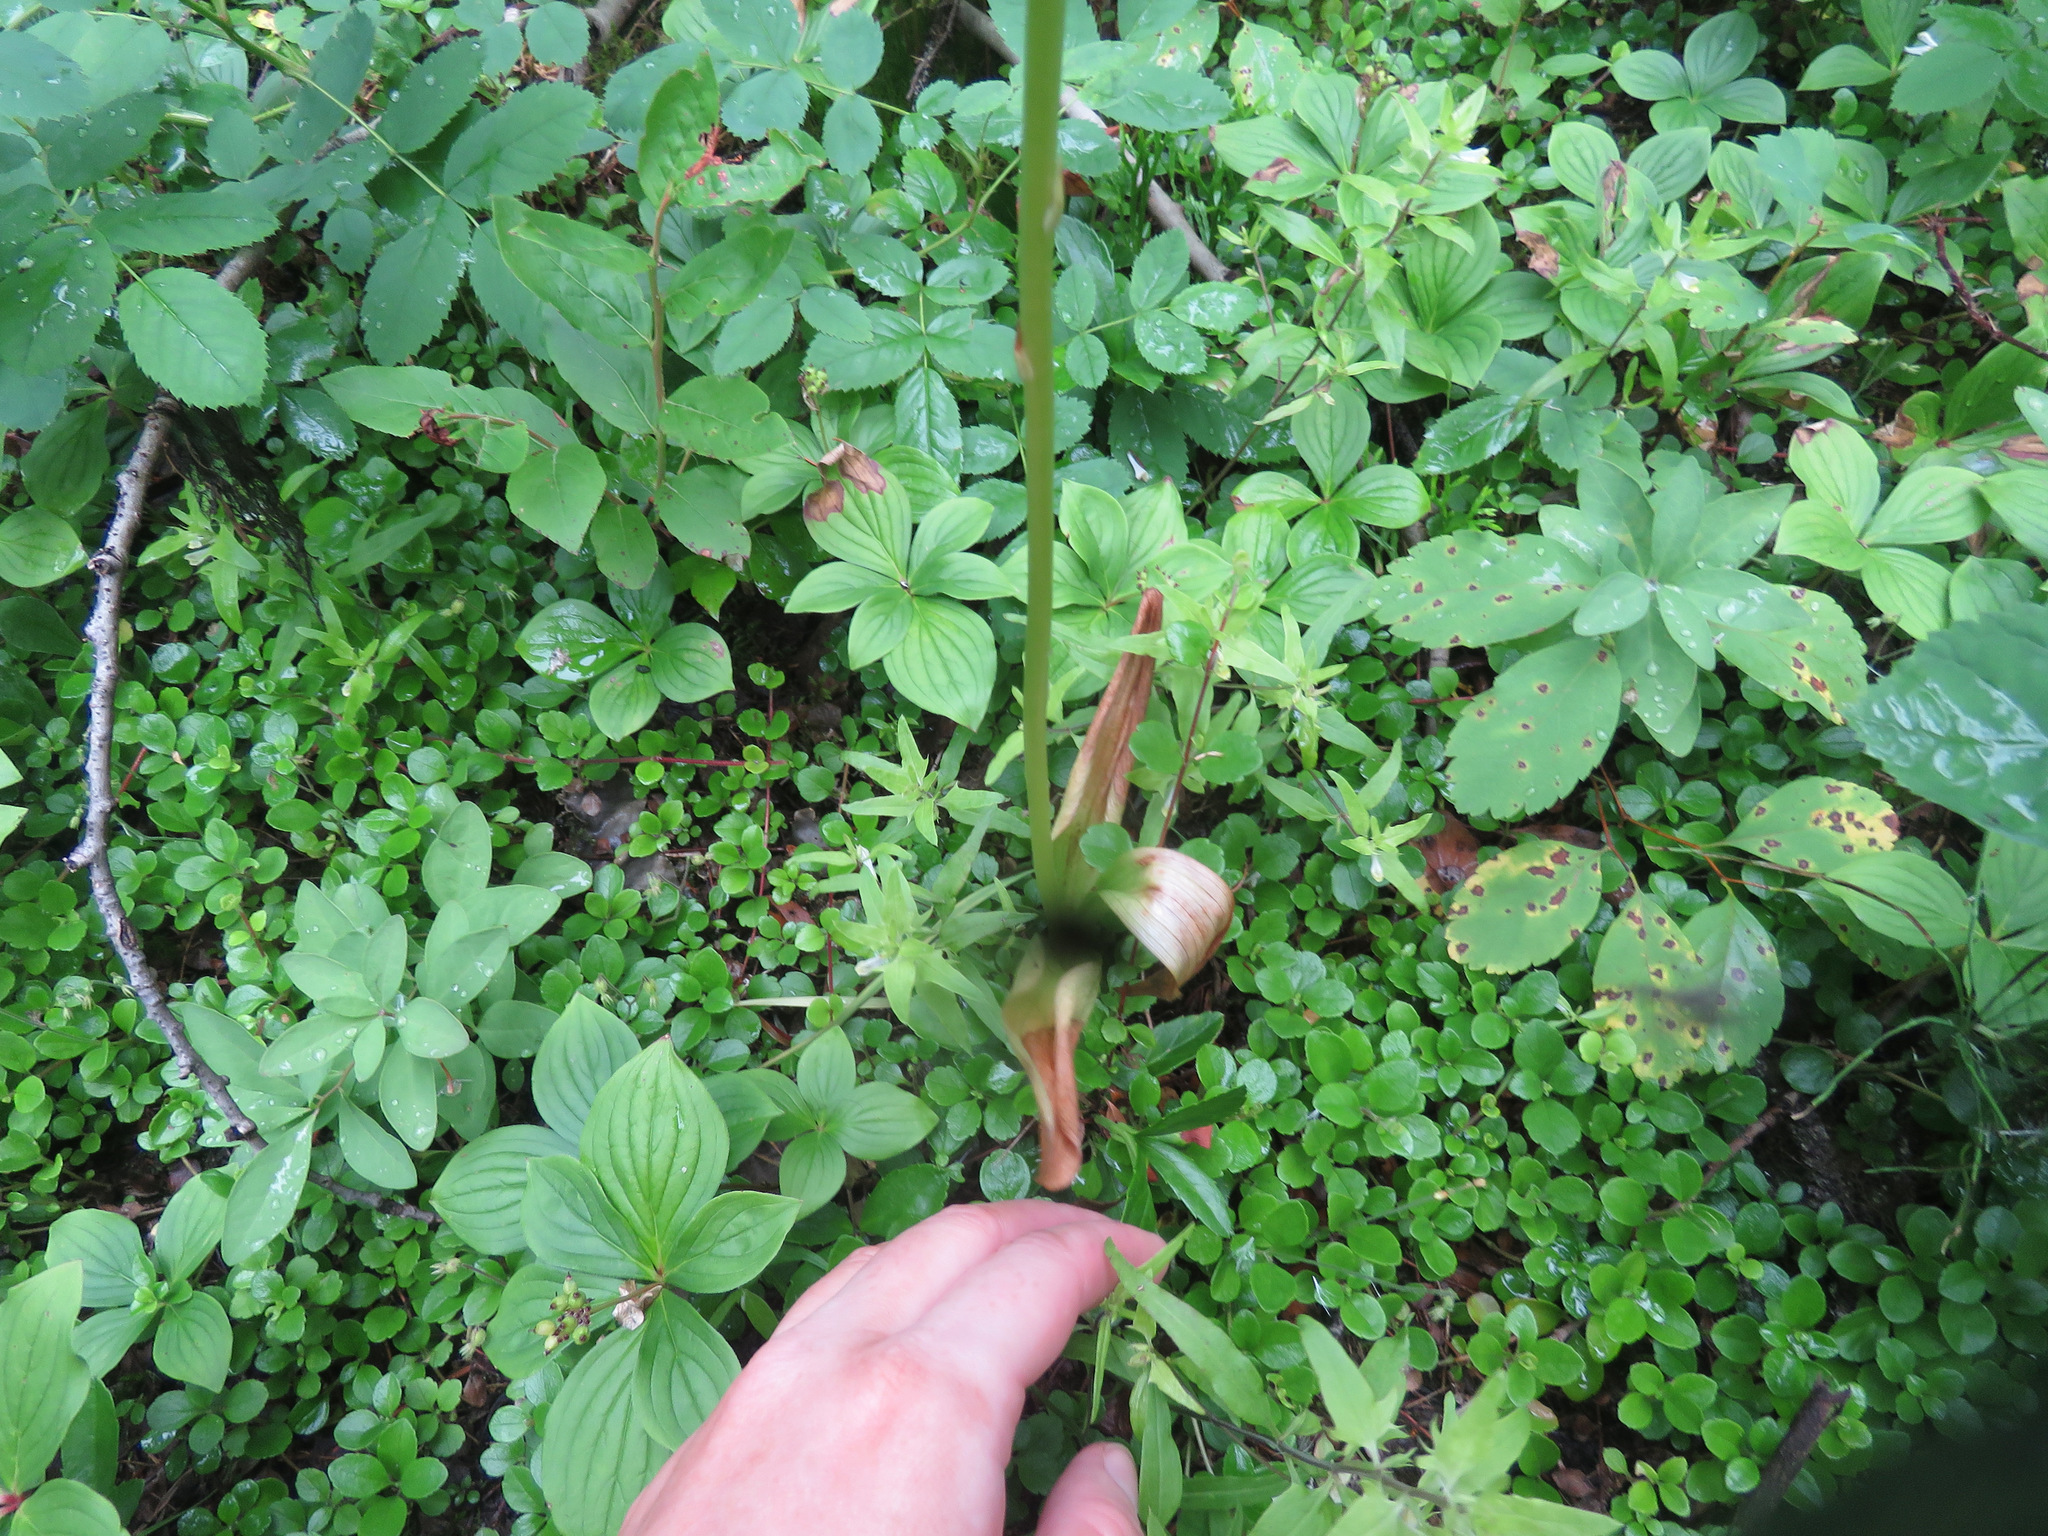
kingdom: Plantae
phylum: Tracheophyta
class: Liliopsida
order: Asparagales
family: Orchidaceae
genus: Platanthera
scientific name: Platanthera unalascensis
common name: Alaska bog orchid
